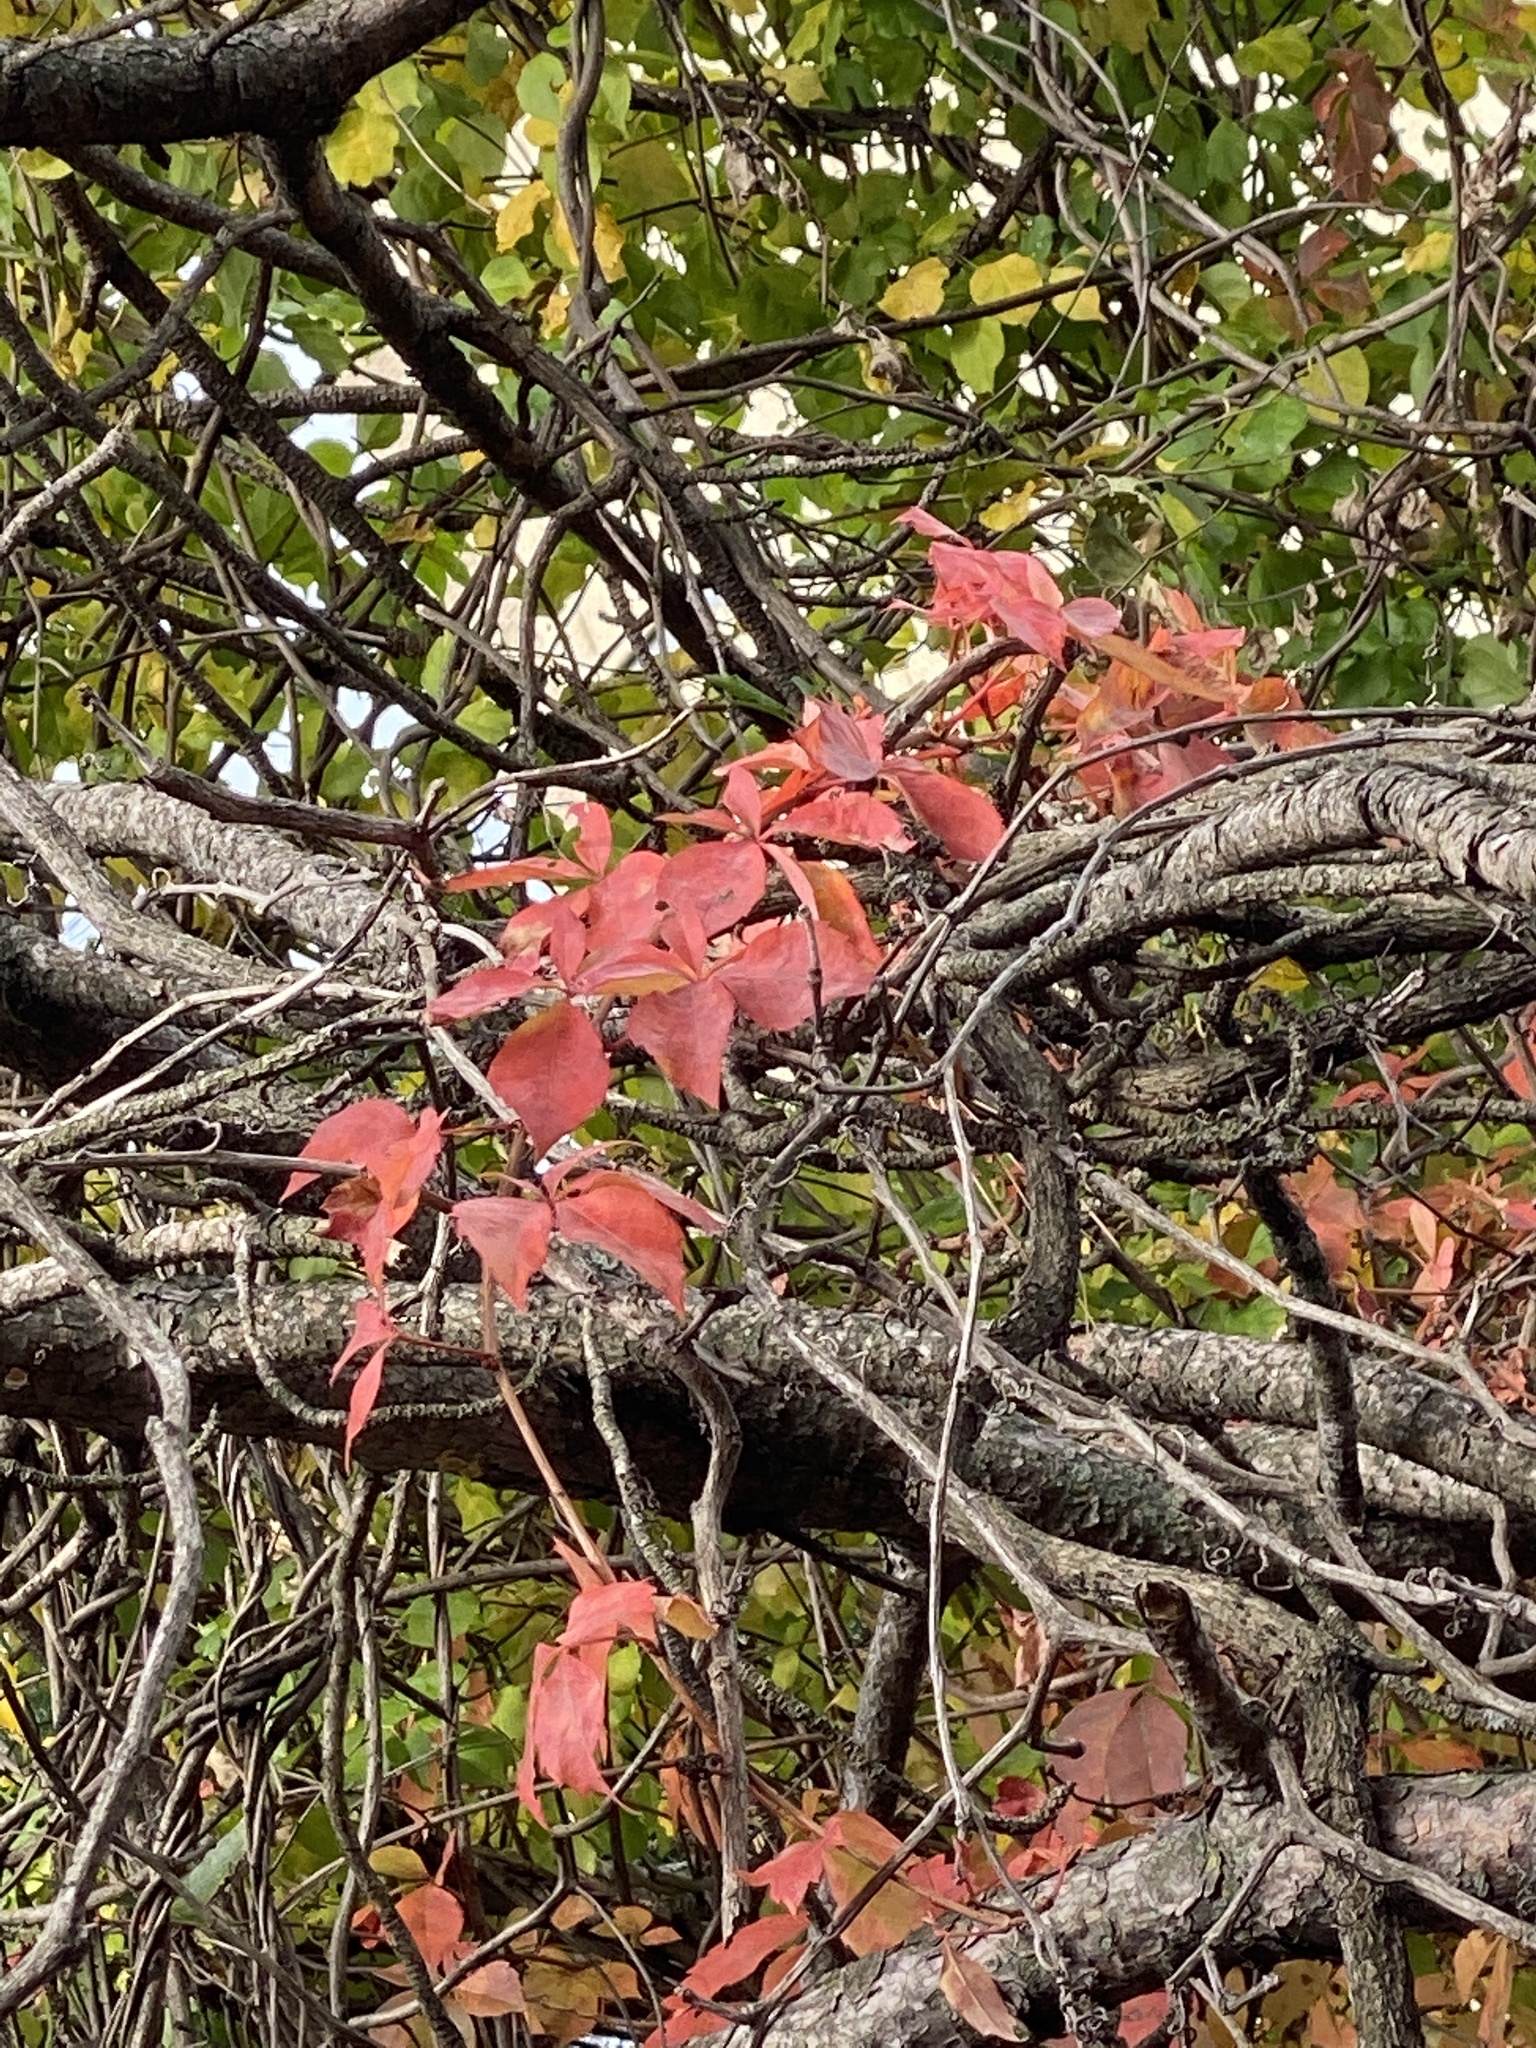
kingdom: Plantae
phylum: Tracheophyta
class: Magnoliopsida
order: Vitales
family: Vitaceae
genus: Parthenocissus
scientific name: Parthenocissus quinquefolia
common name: Virginia-creeper
